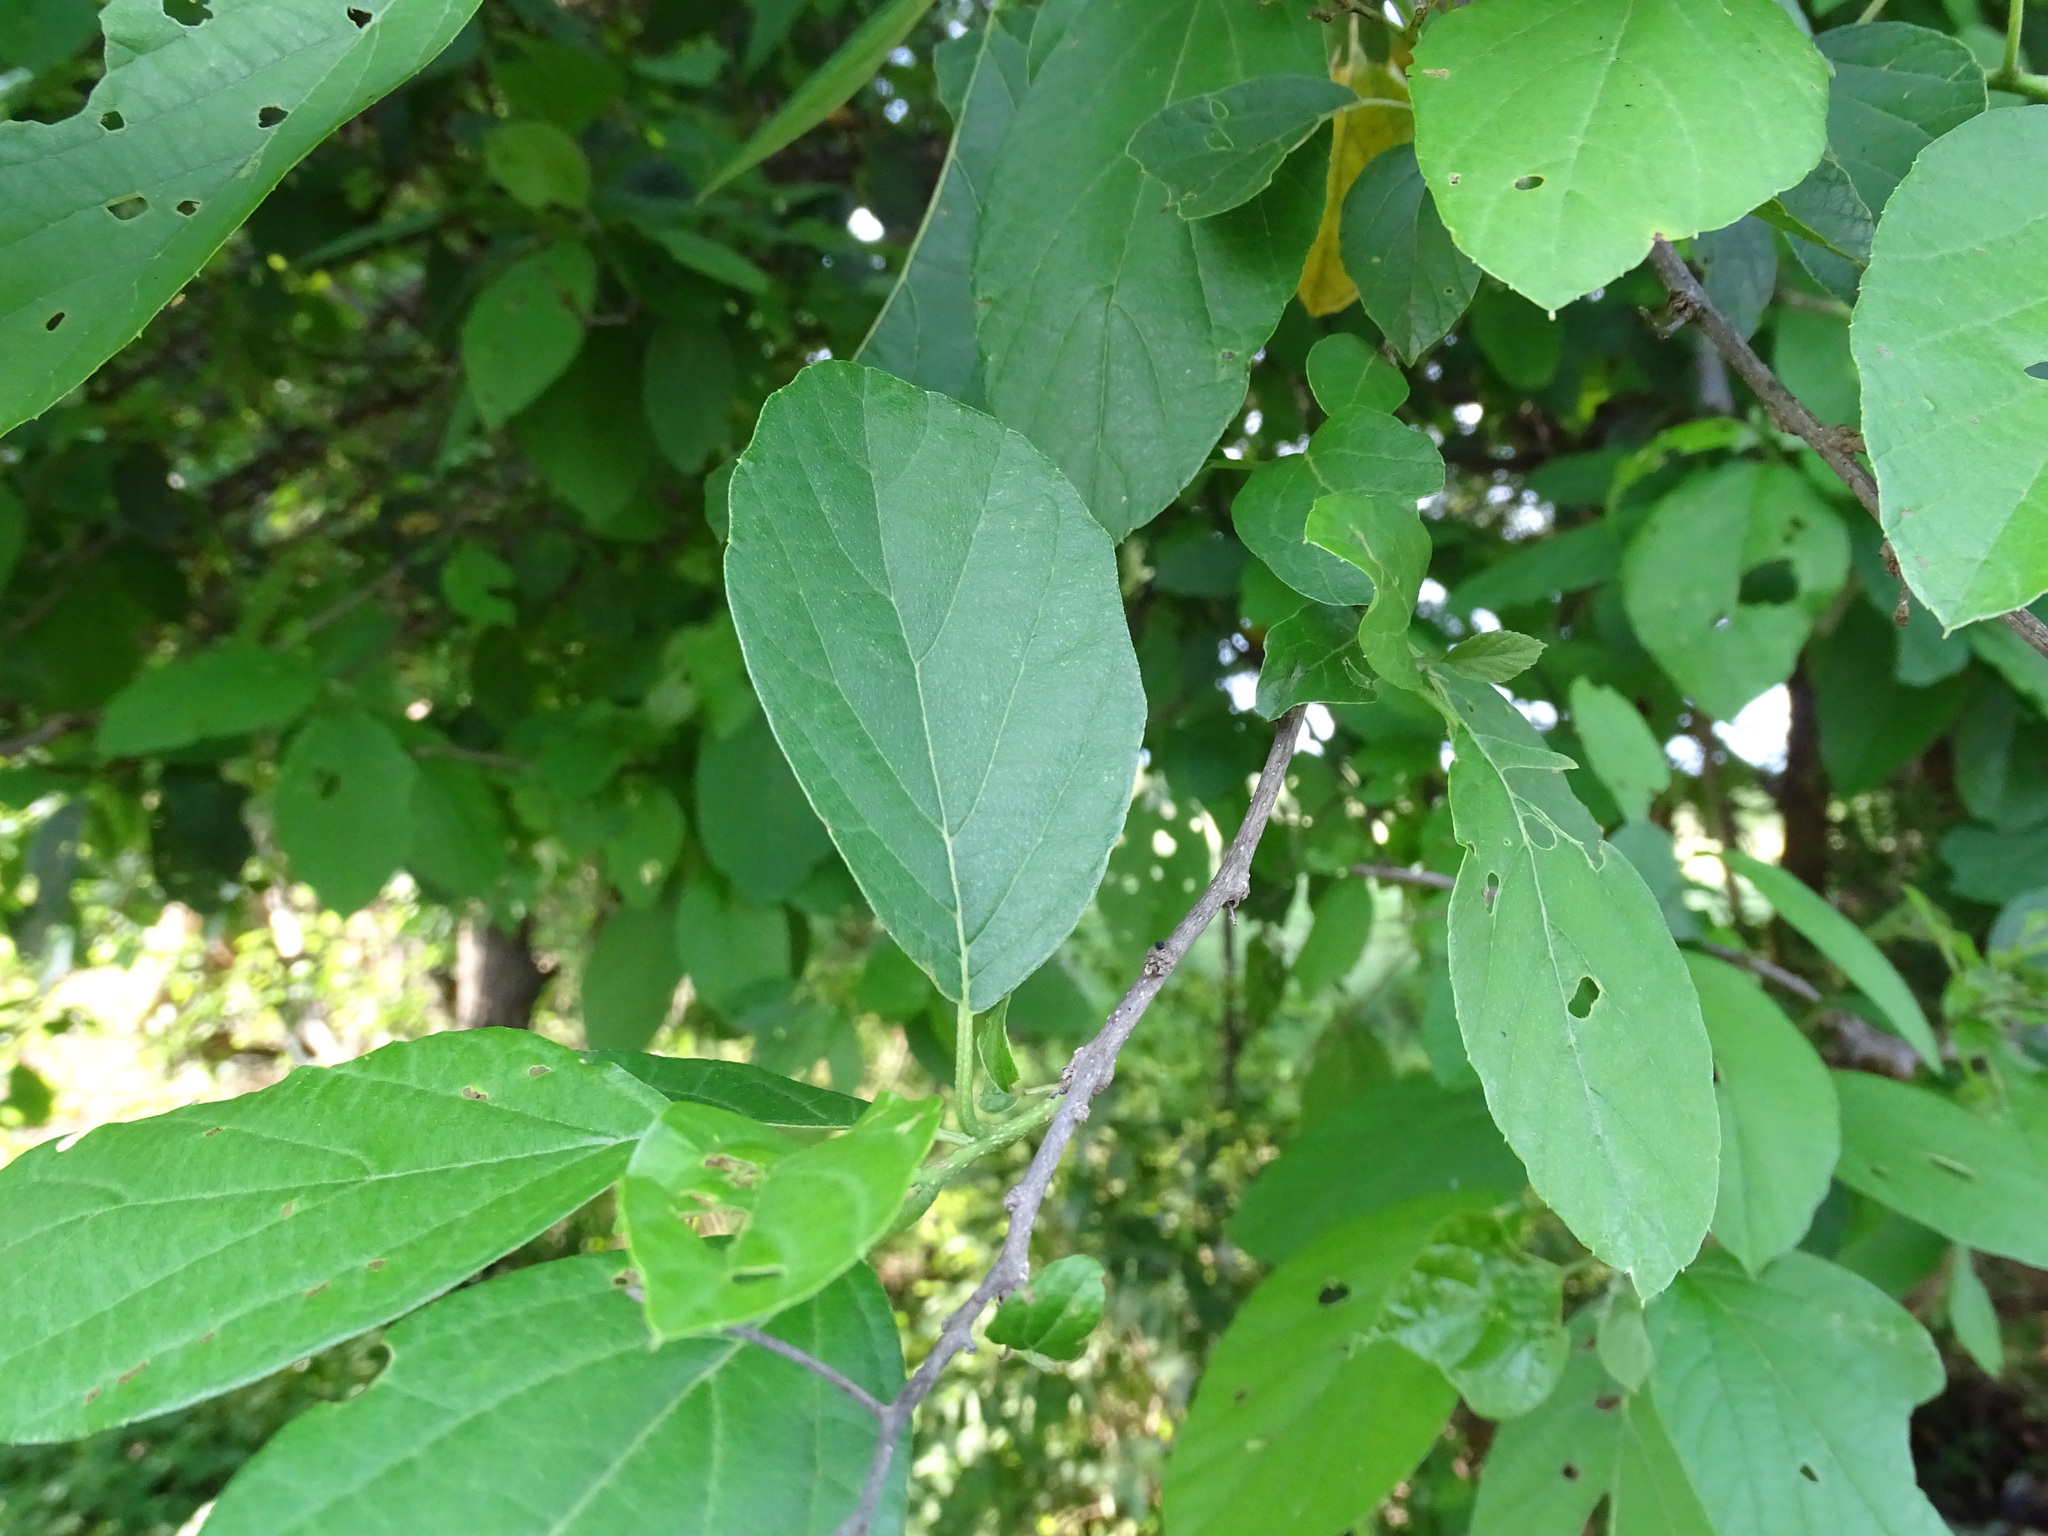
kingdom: Plantae
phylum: Tracheophyta
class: Magnoliopsida
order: Boraginales
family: Cordiaceae
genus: Cordia
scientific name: Cordia dentata
